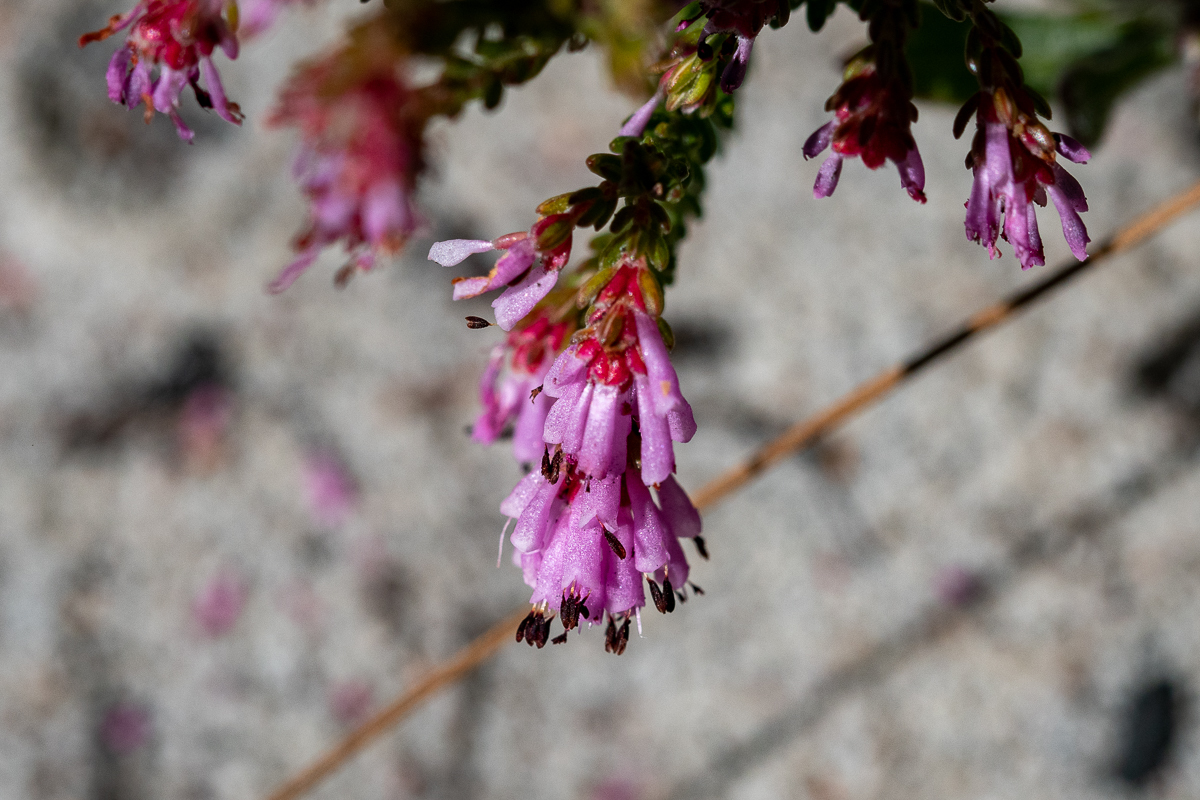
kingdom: Plantae
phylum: Tracheophyta
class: Magnoliopsida
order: Ericales
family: Ericaceae
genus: Erica
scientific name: Erica labialis
